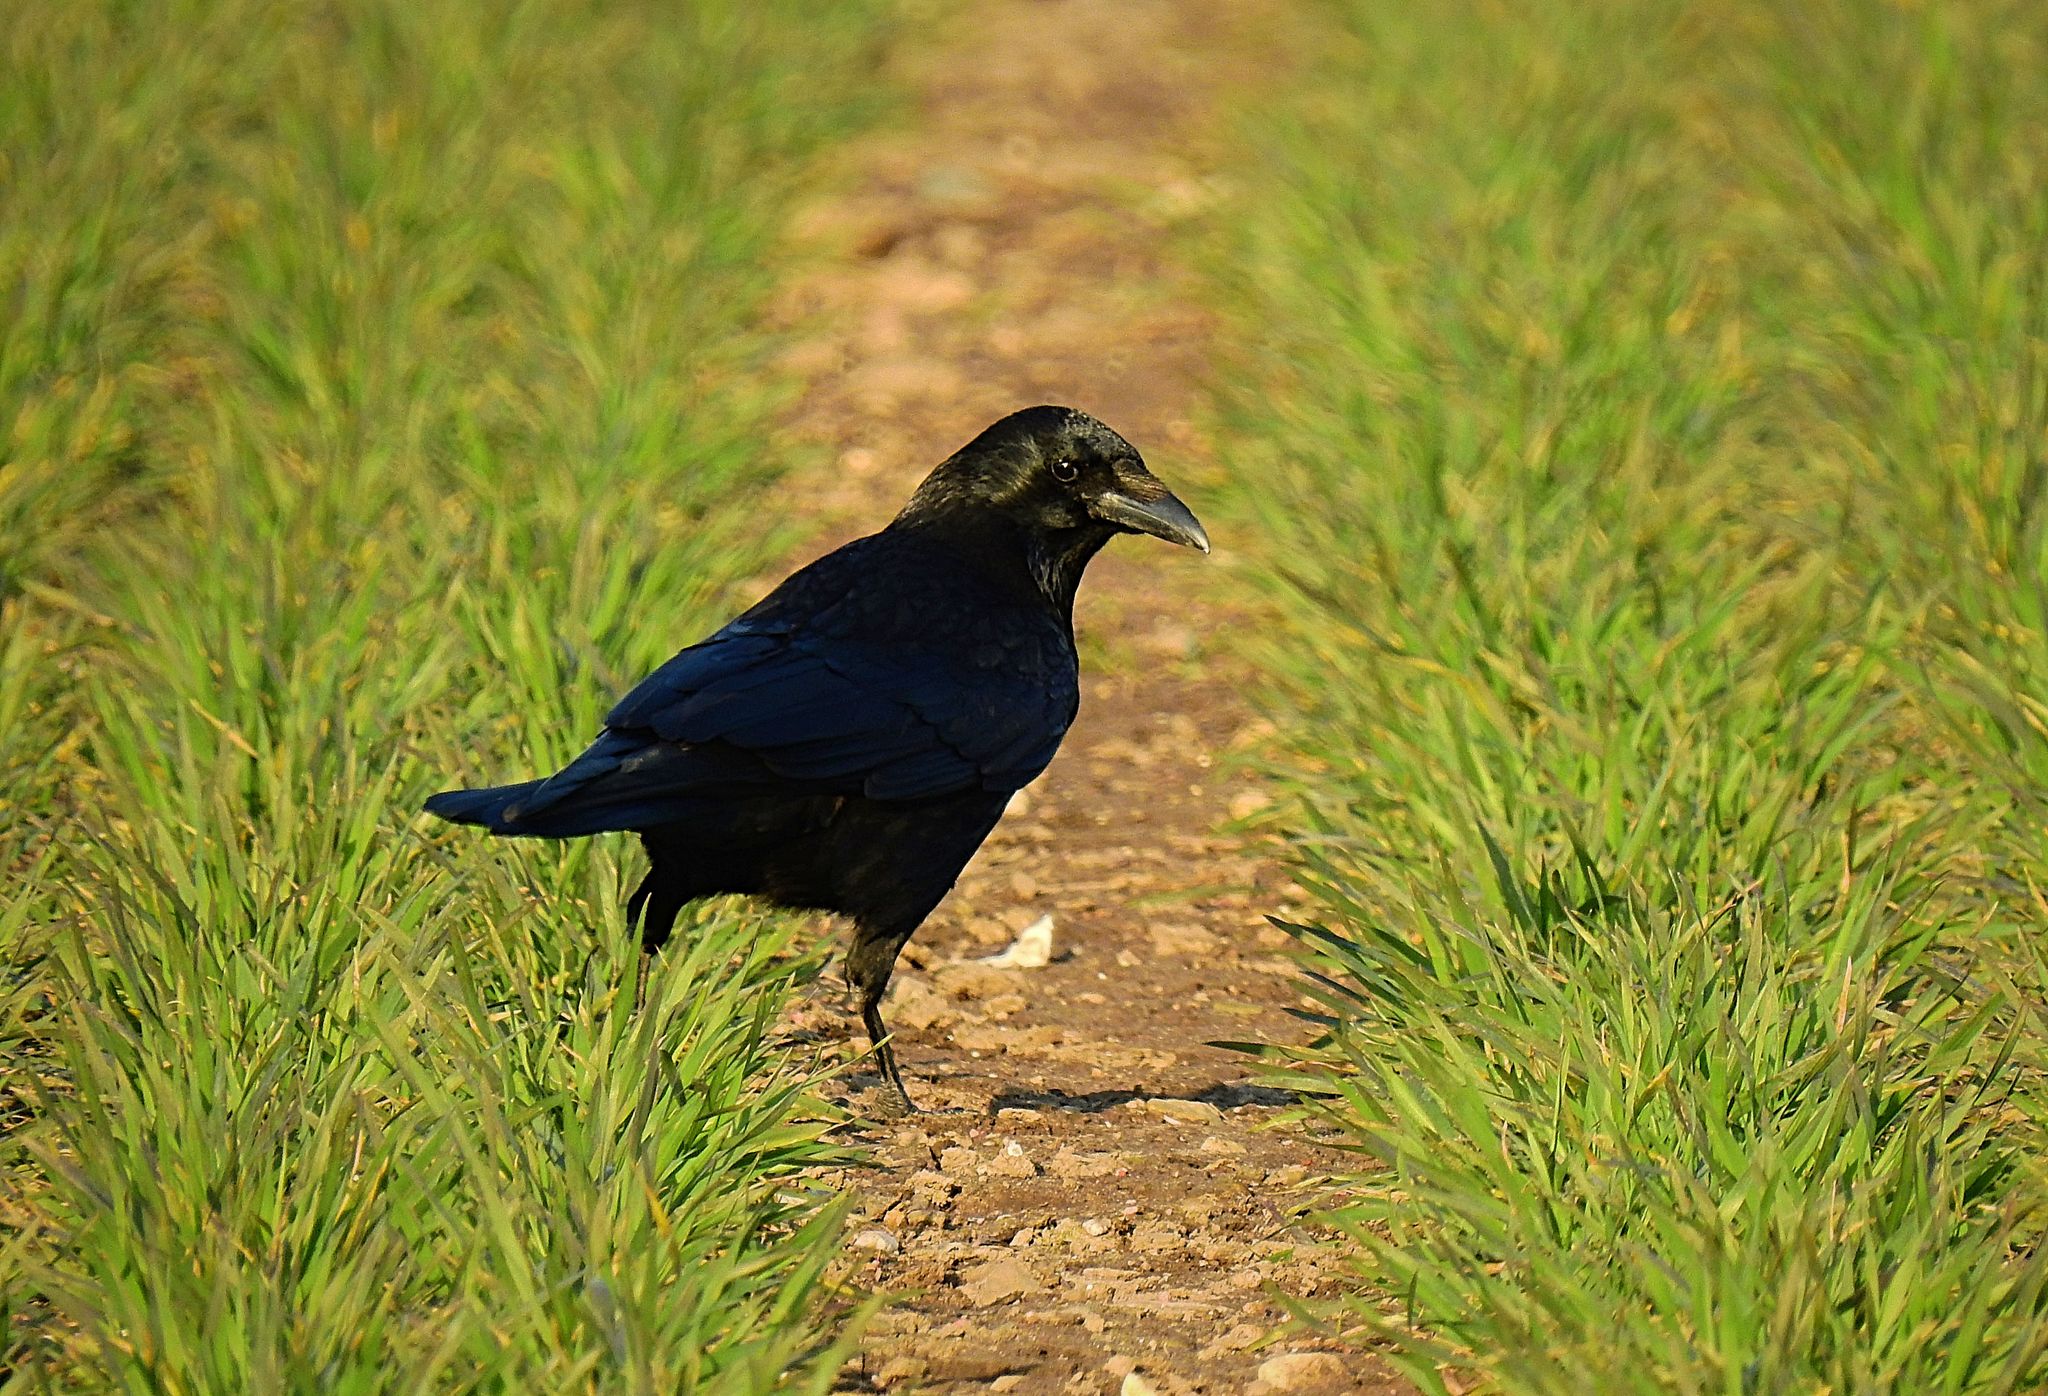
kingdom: Animalia
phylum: Chordata
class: Aves
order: Passeriformes
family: Corvidae
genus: Corvus
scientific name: Corvus corone
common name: Carrion crow
